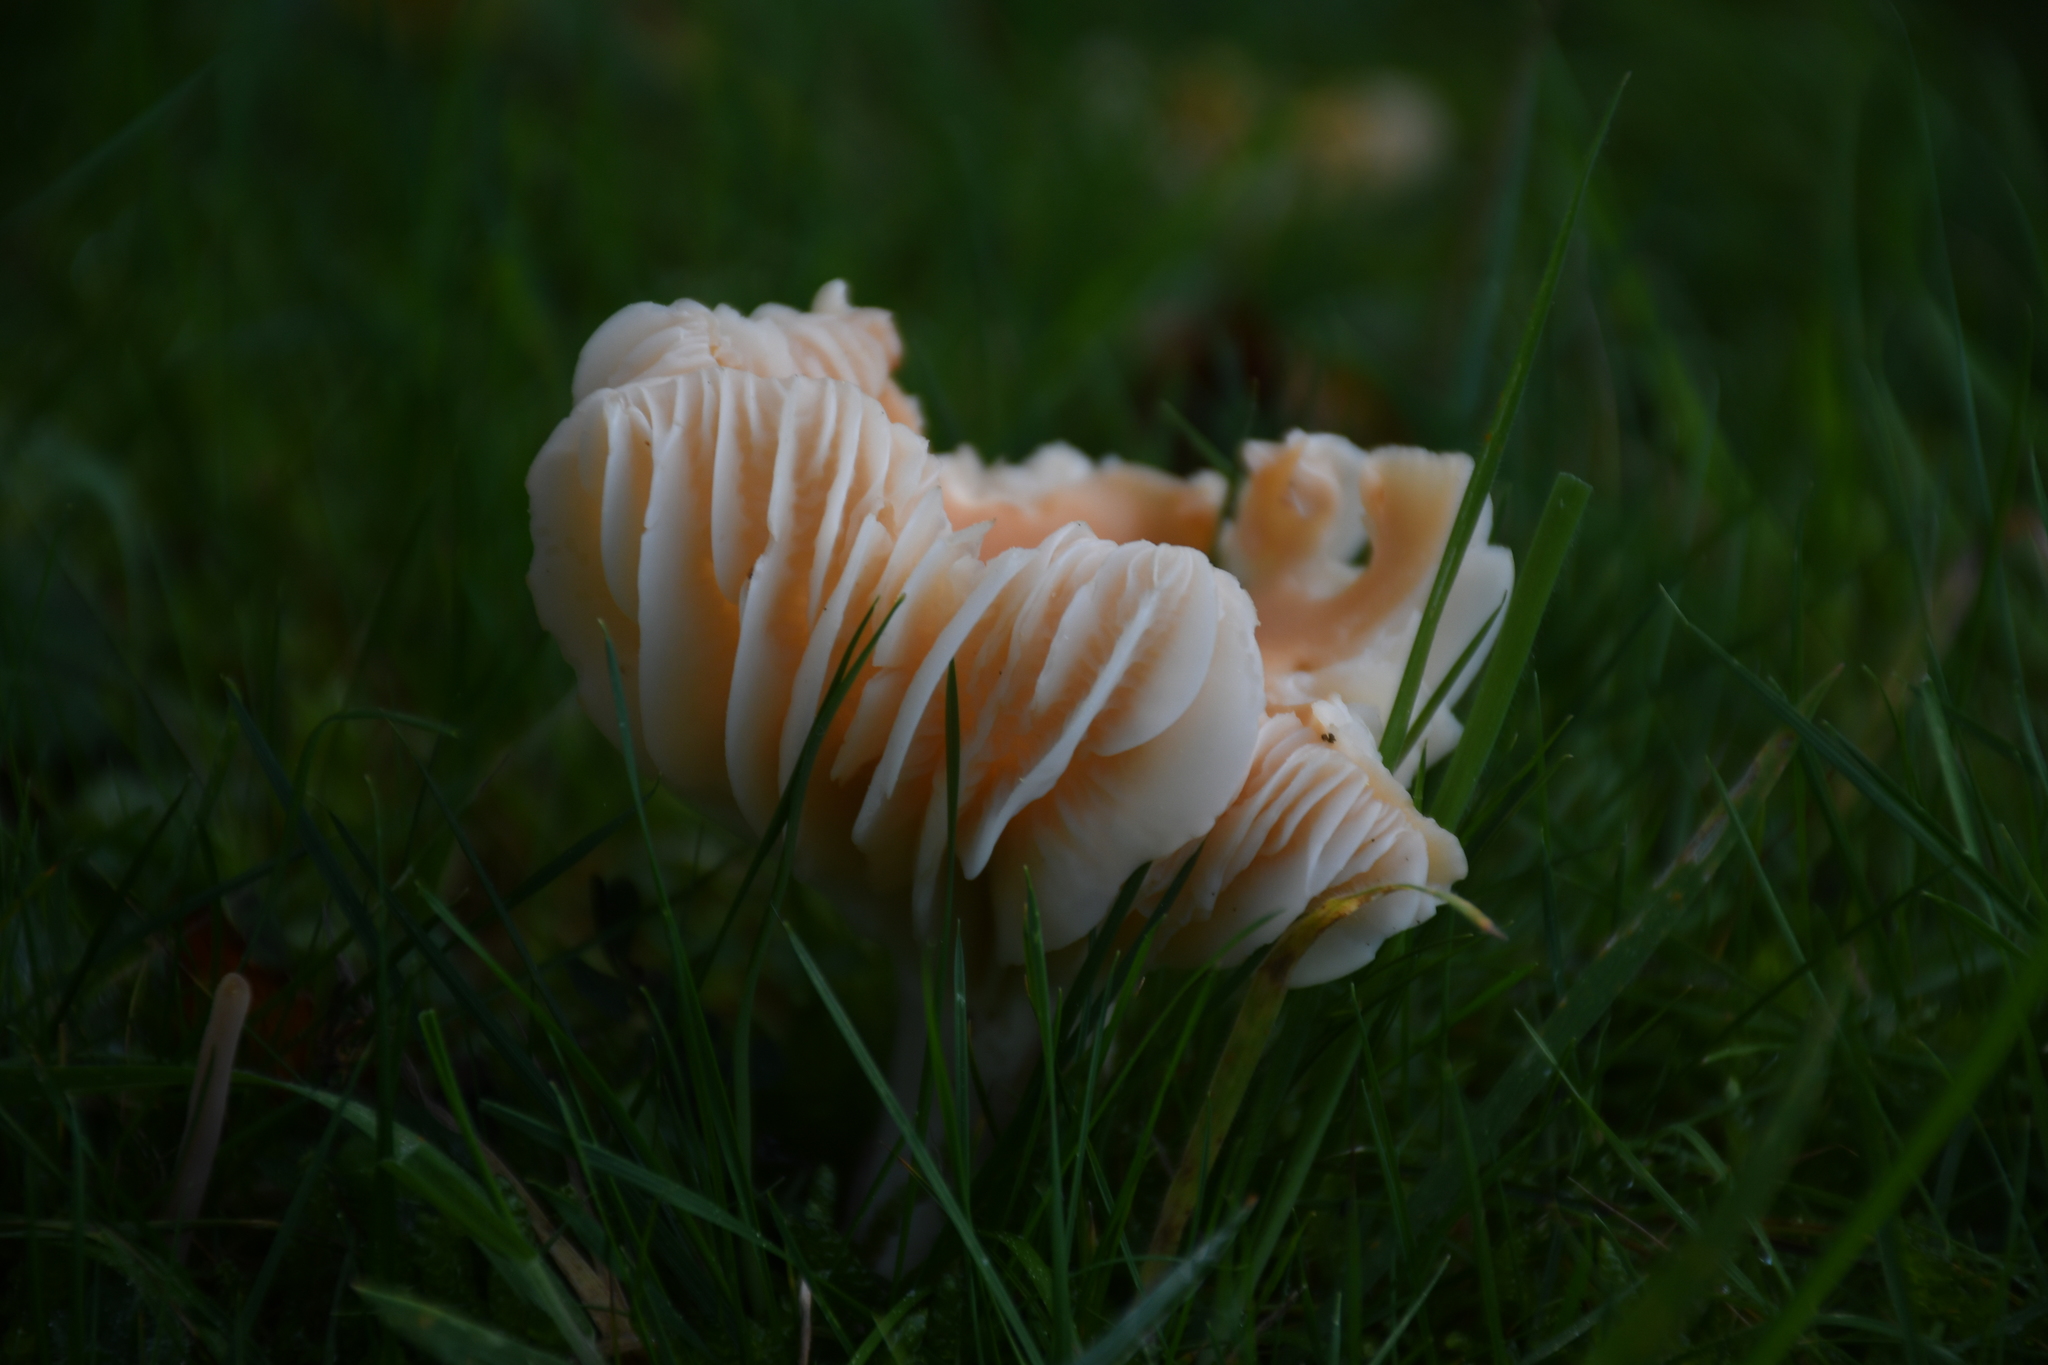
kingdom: Fungi
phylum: Basidiomycota
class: Agaricomycetes
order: Agaricales
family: Hygrophoraceae
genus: Cuphophyllus
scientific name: Cuphophyllus pratensis
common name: Meadow waxcap
